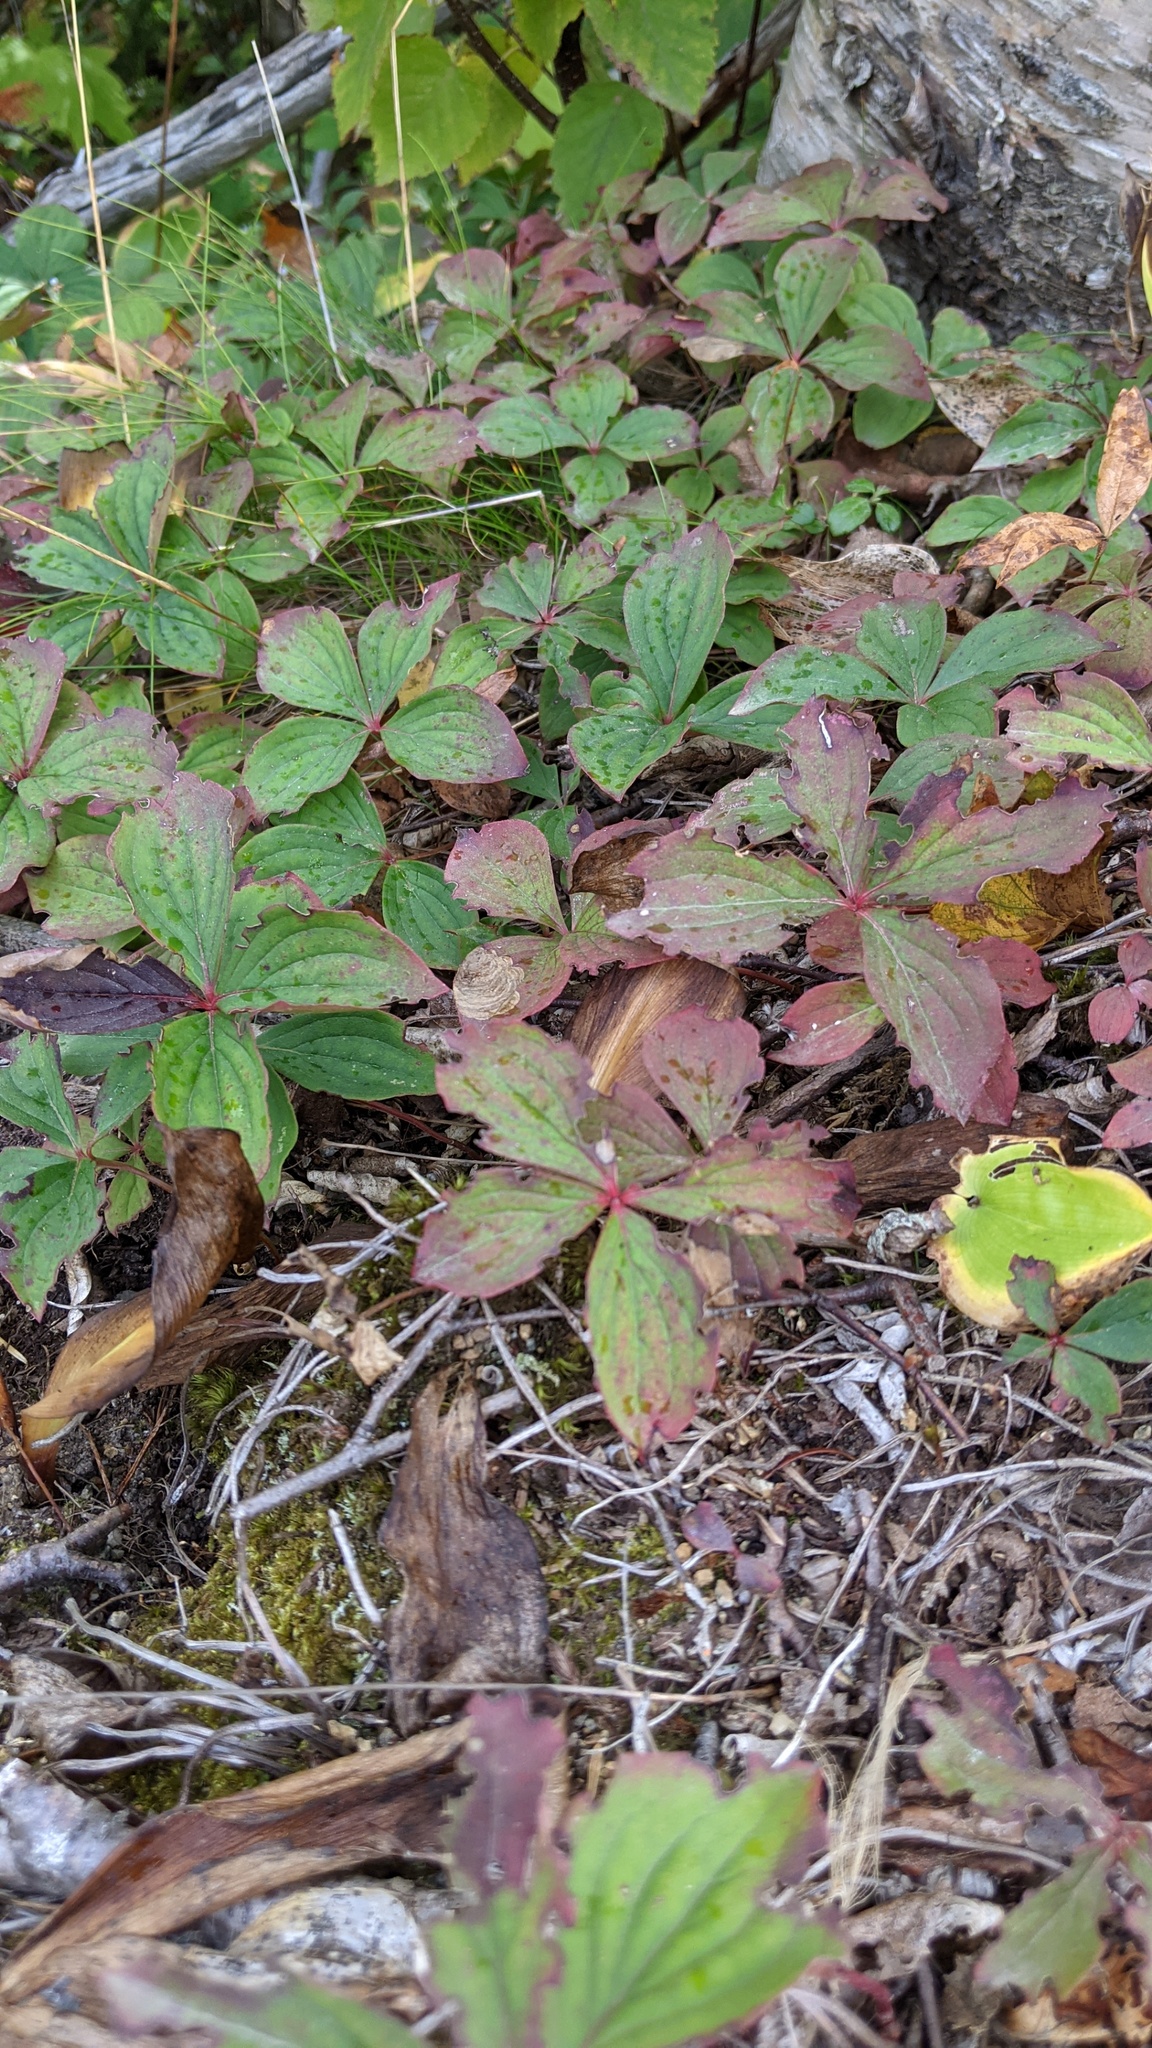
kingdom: Plantae
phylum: Tracheophyta
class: Magnoliopsida
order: Cornales
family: Cornaceae
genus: Cornus
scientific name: Cornus canadensis
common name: Creeping dogwood
